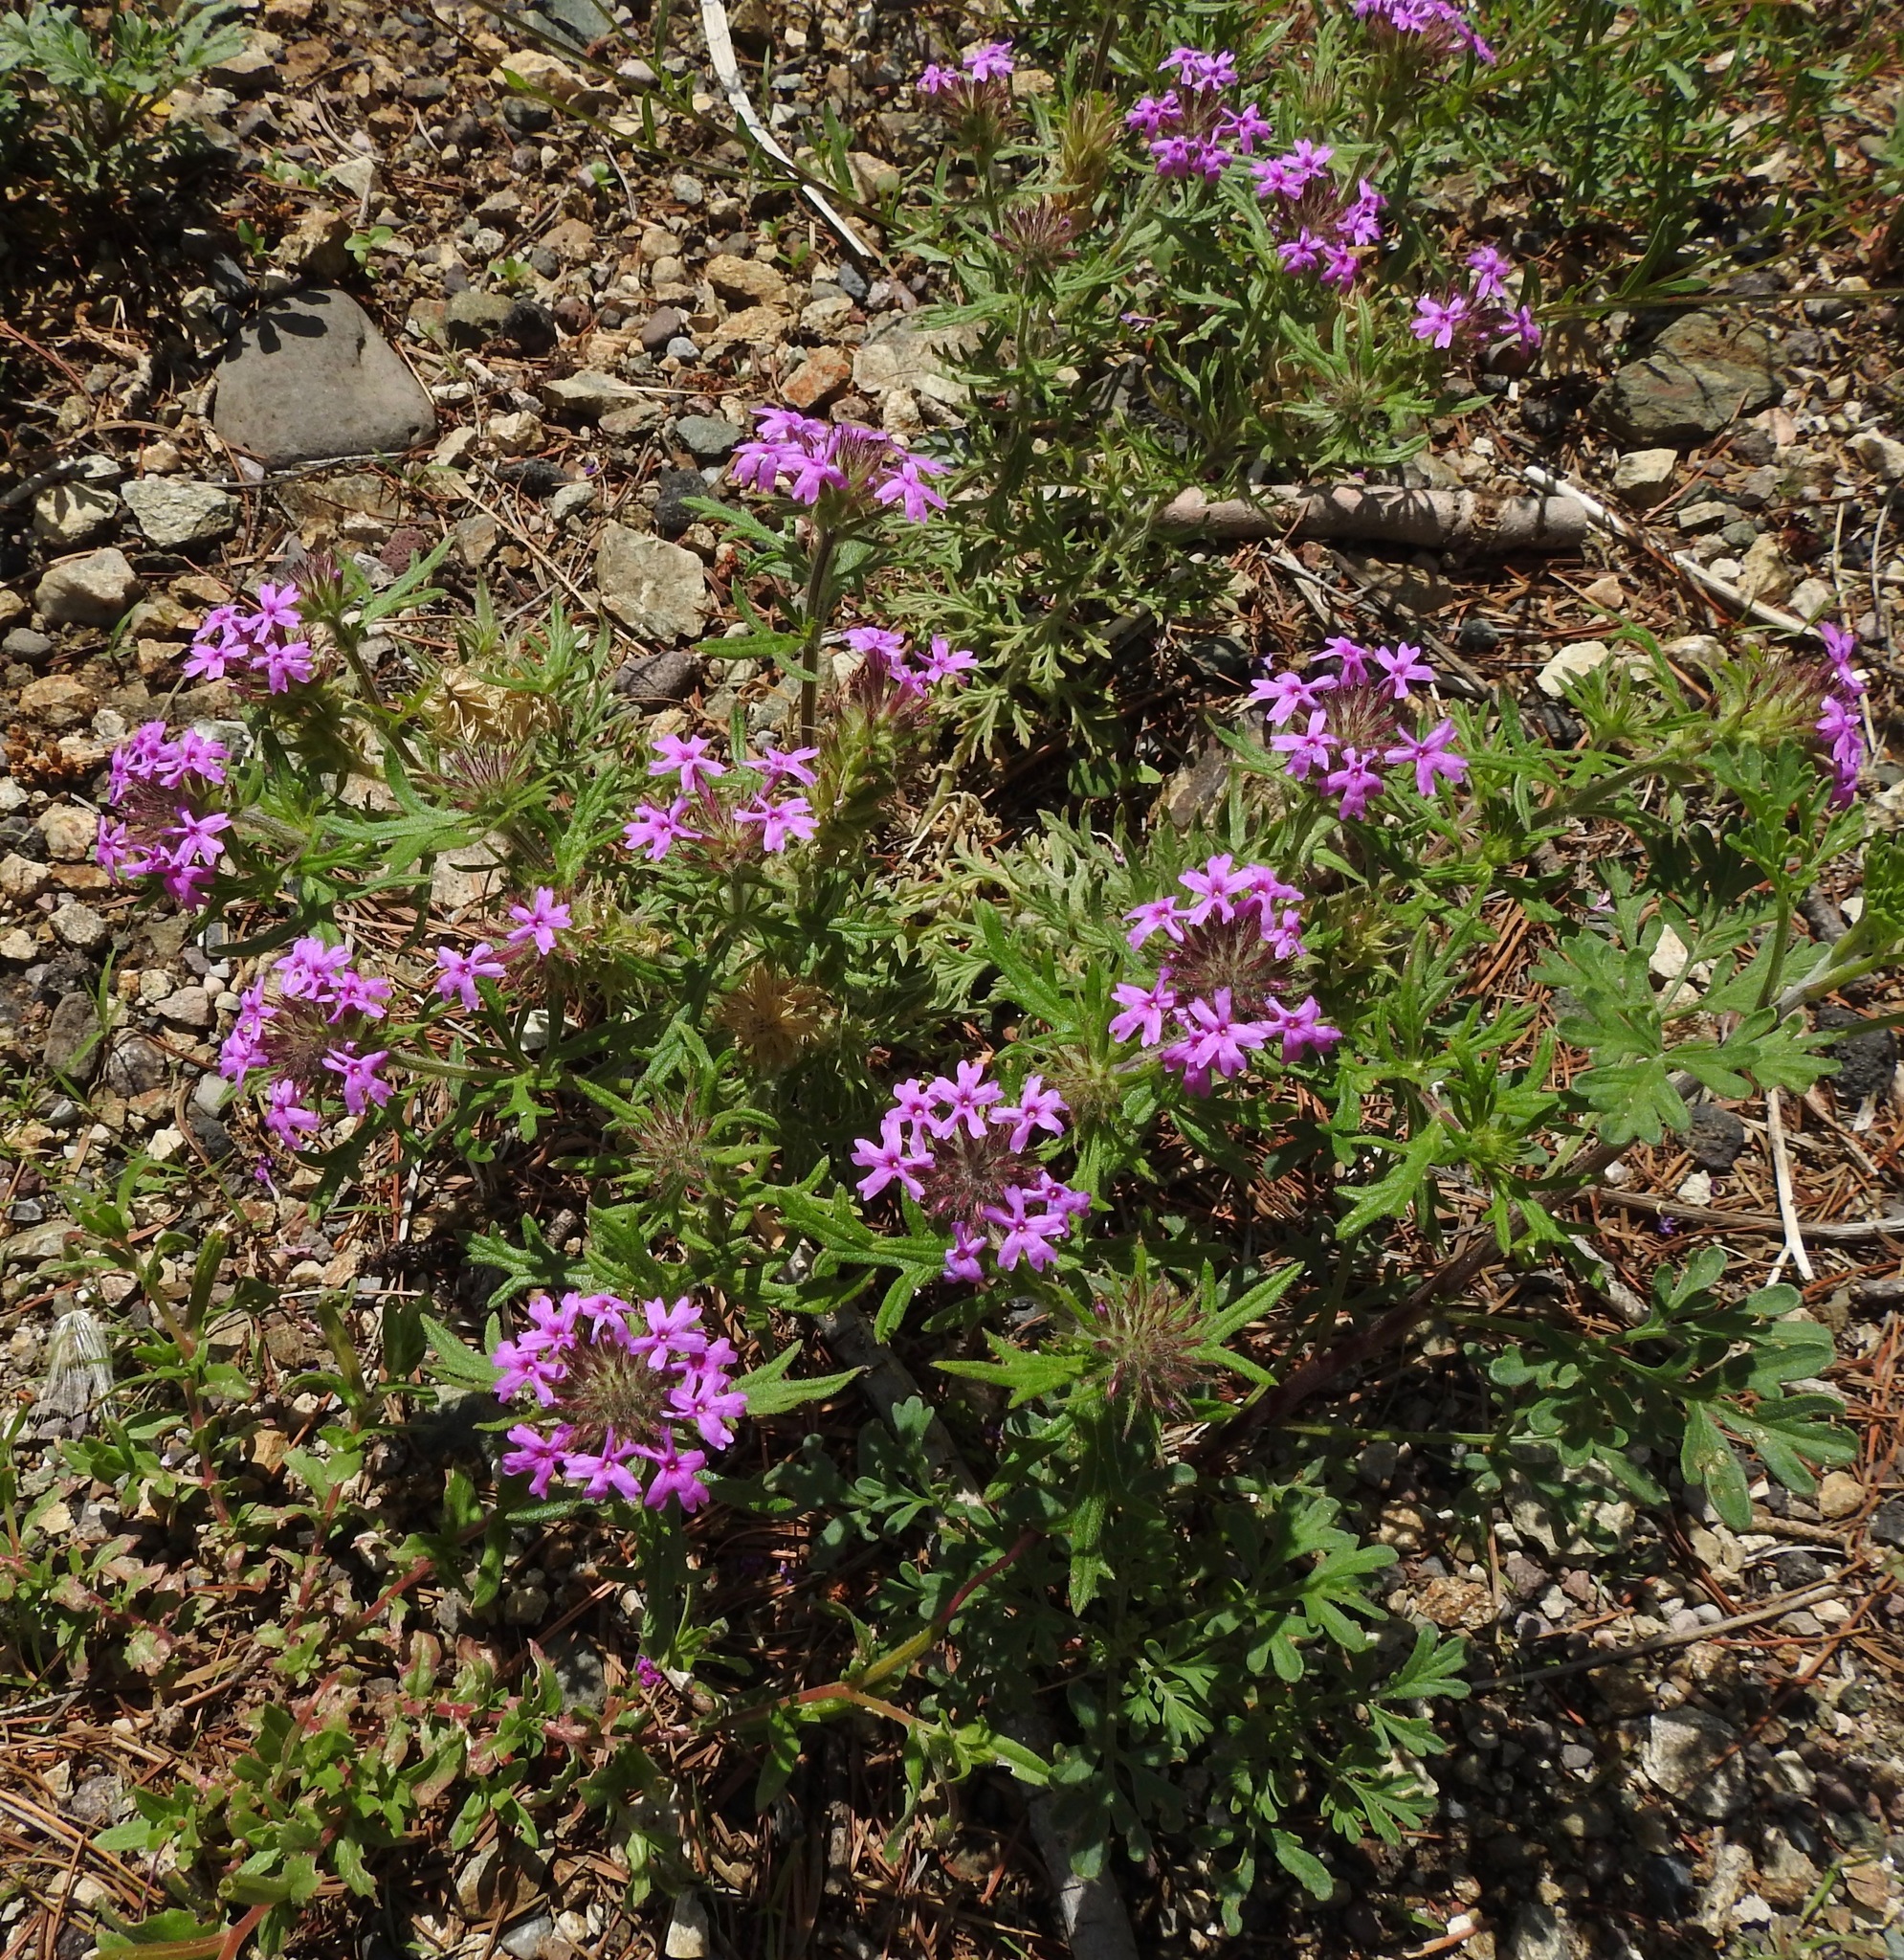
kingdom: Plantae
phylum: Tracheophyta
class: Magnoliopsida
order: Lamiales
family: Verbenaceae
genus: Verbena
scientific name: Verbena chiricahensis
